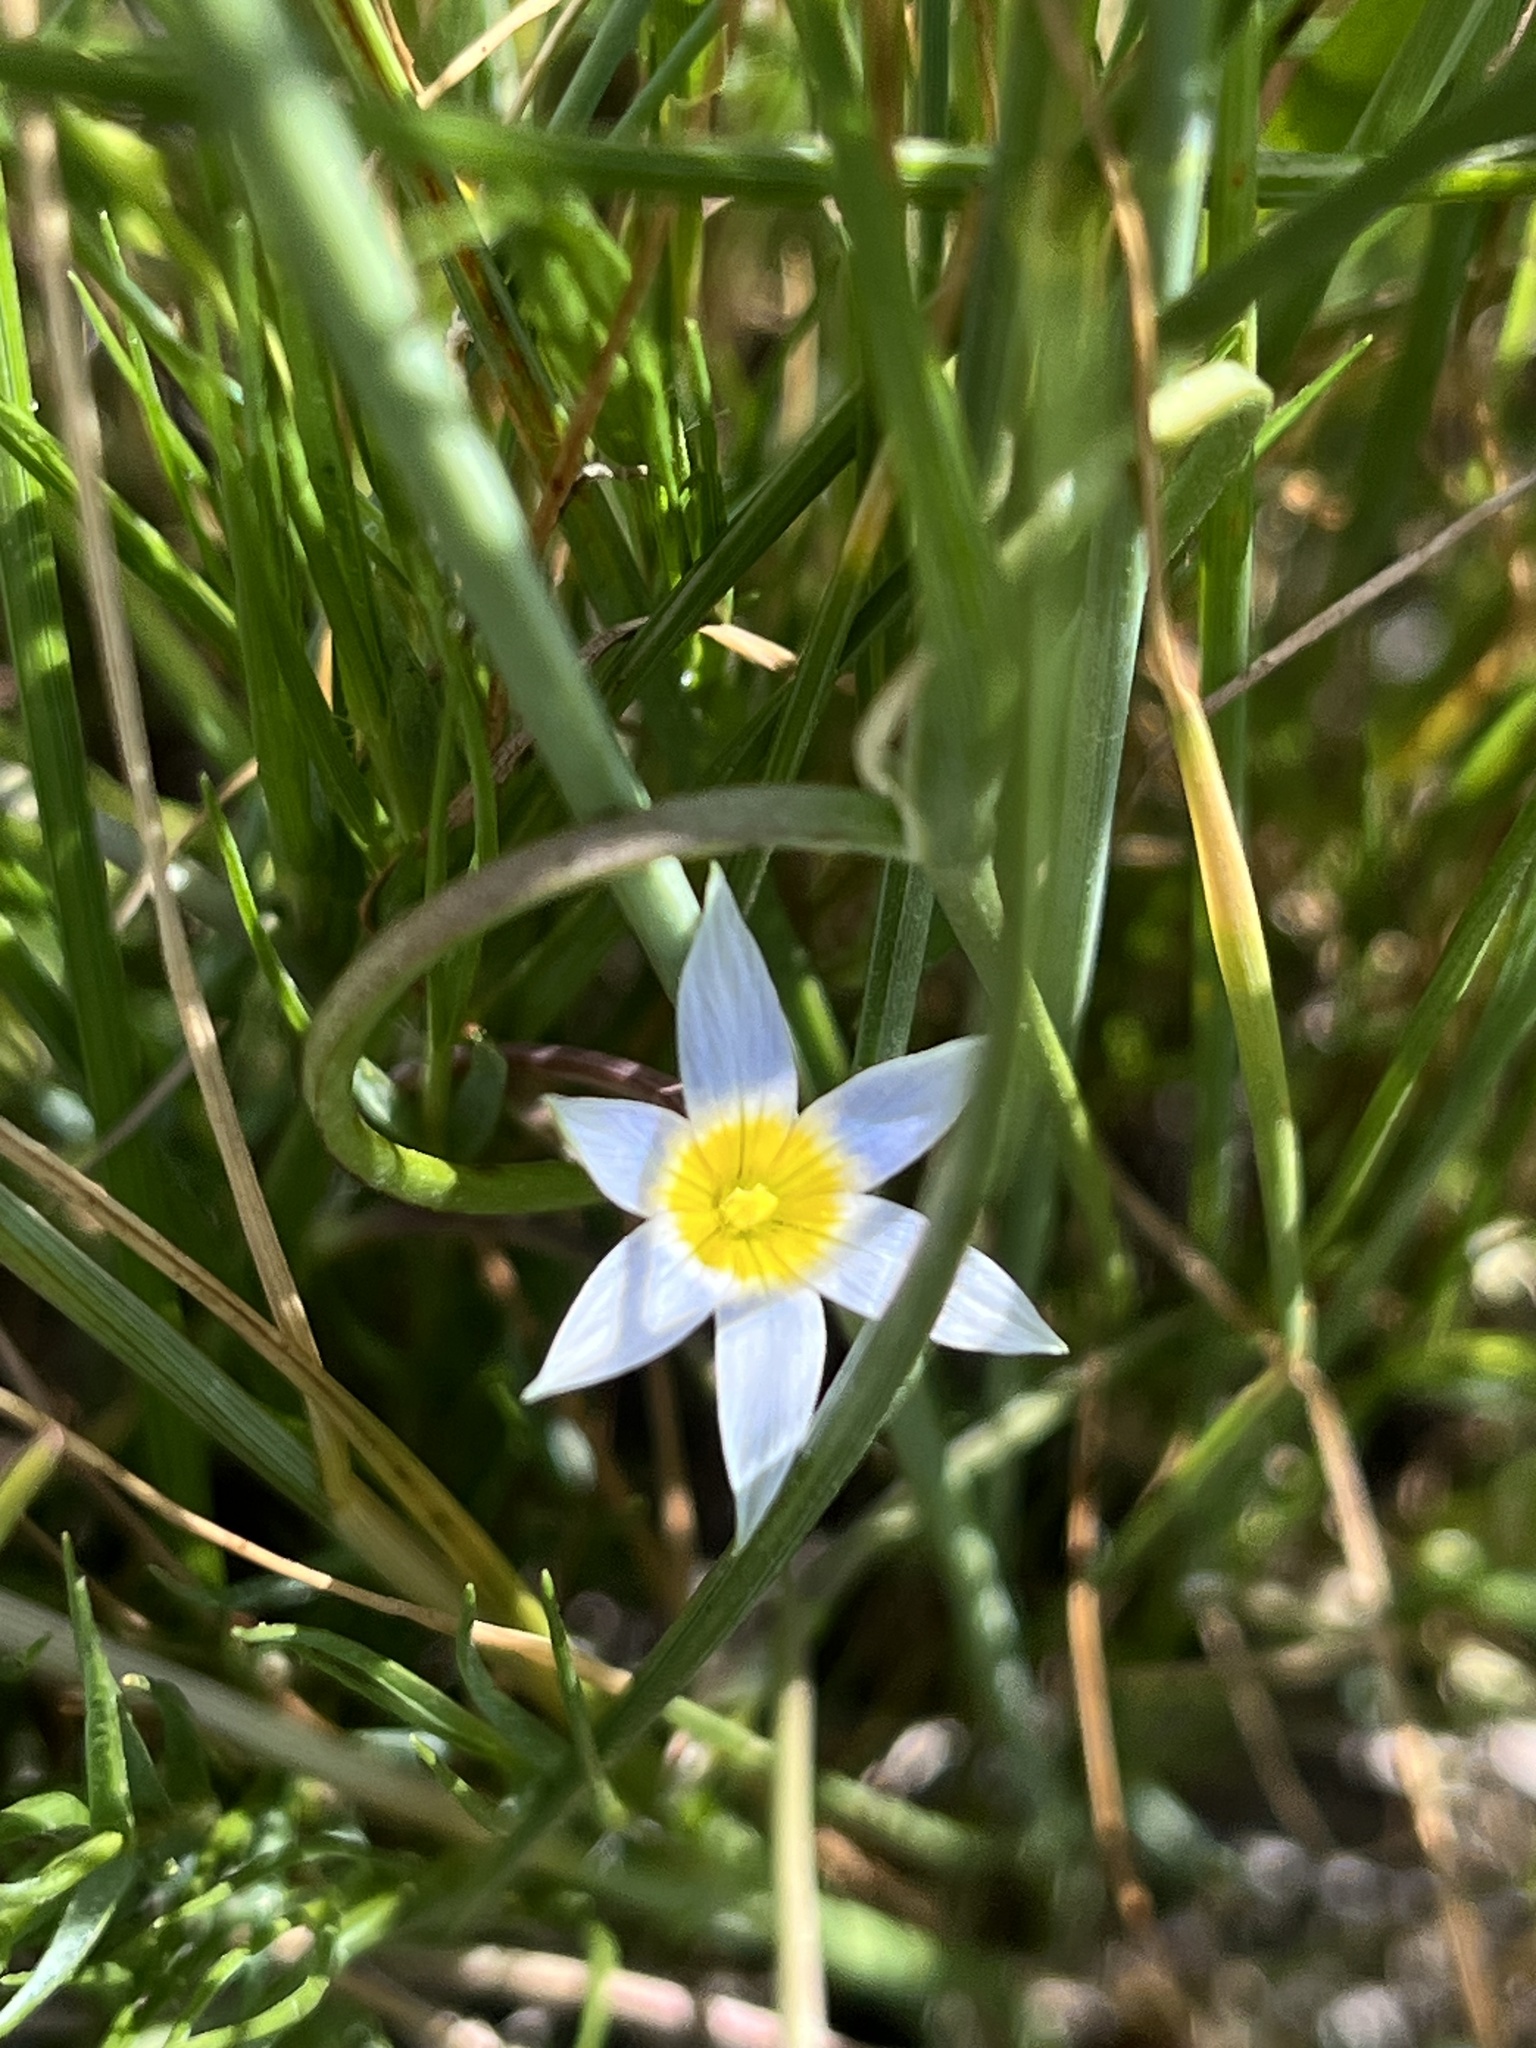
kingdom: Plantae
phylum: Tracheophyta
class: Liliopsida
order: Asparagales
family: Iridaceae
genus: Romulea
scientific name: Romulea tabularis
